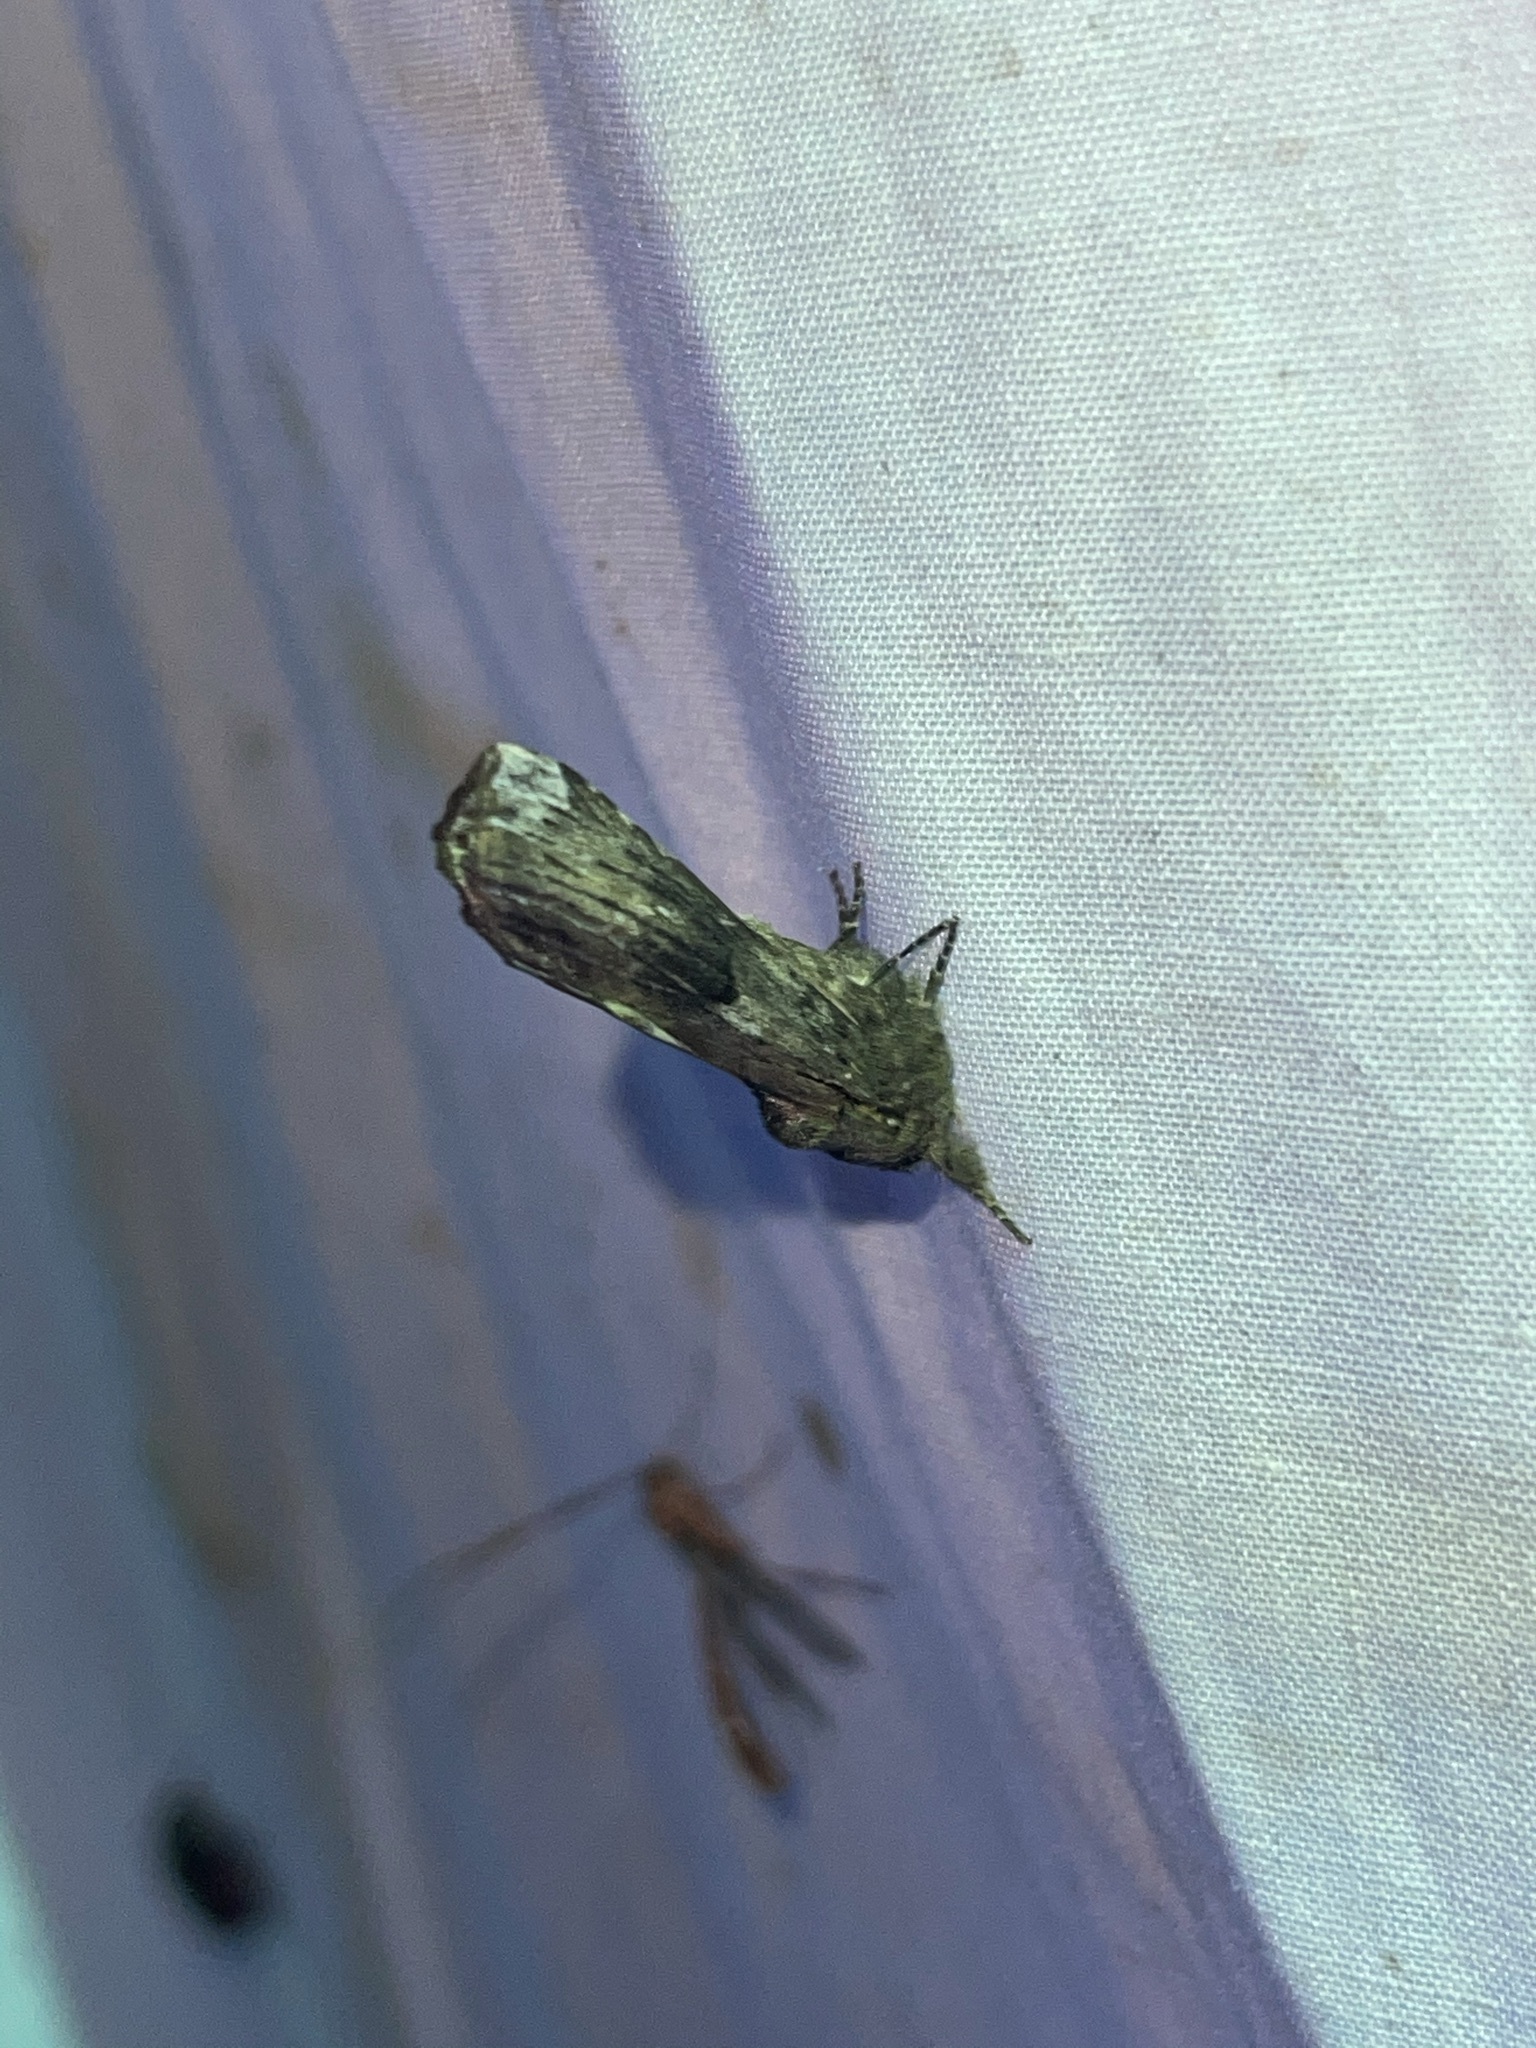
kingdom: Animalia
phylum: Arthropoda
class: Insecta
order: Lepidoptera
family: Notodontidae
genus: Schizura
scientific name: Schizura
